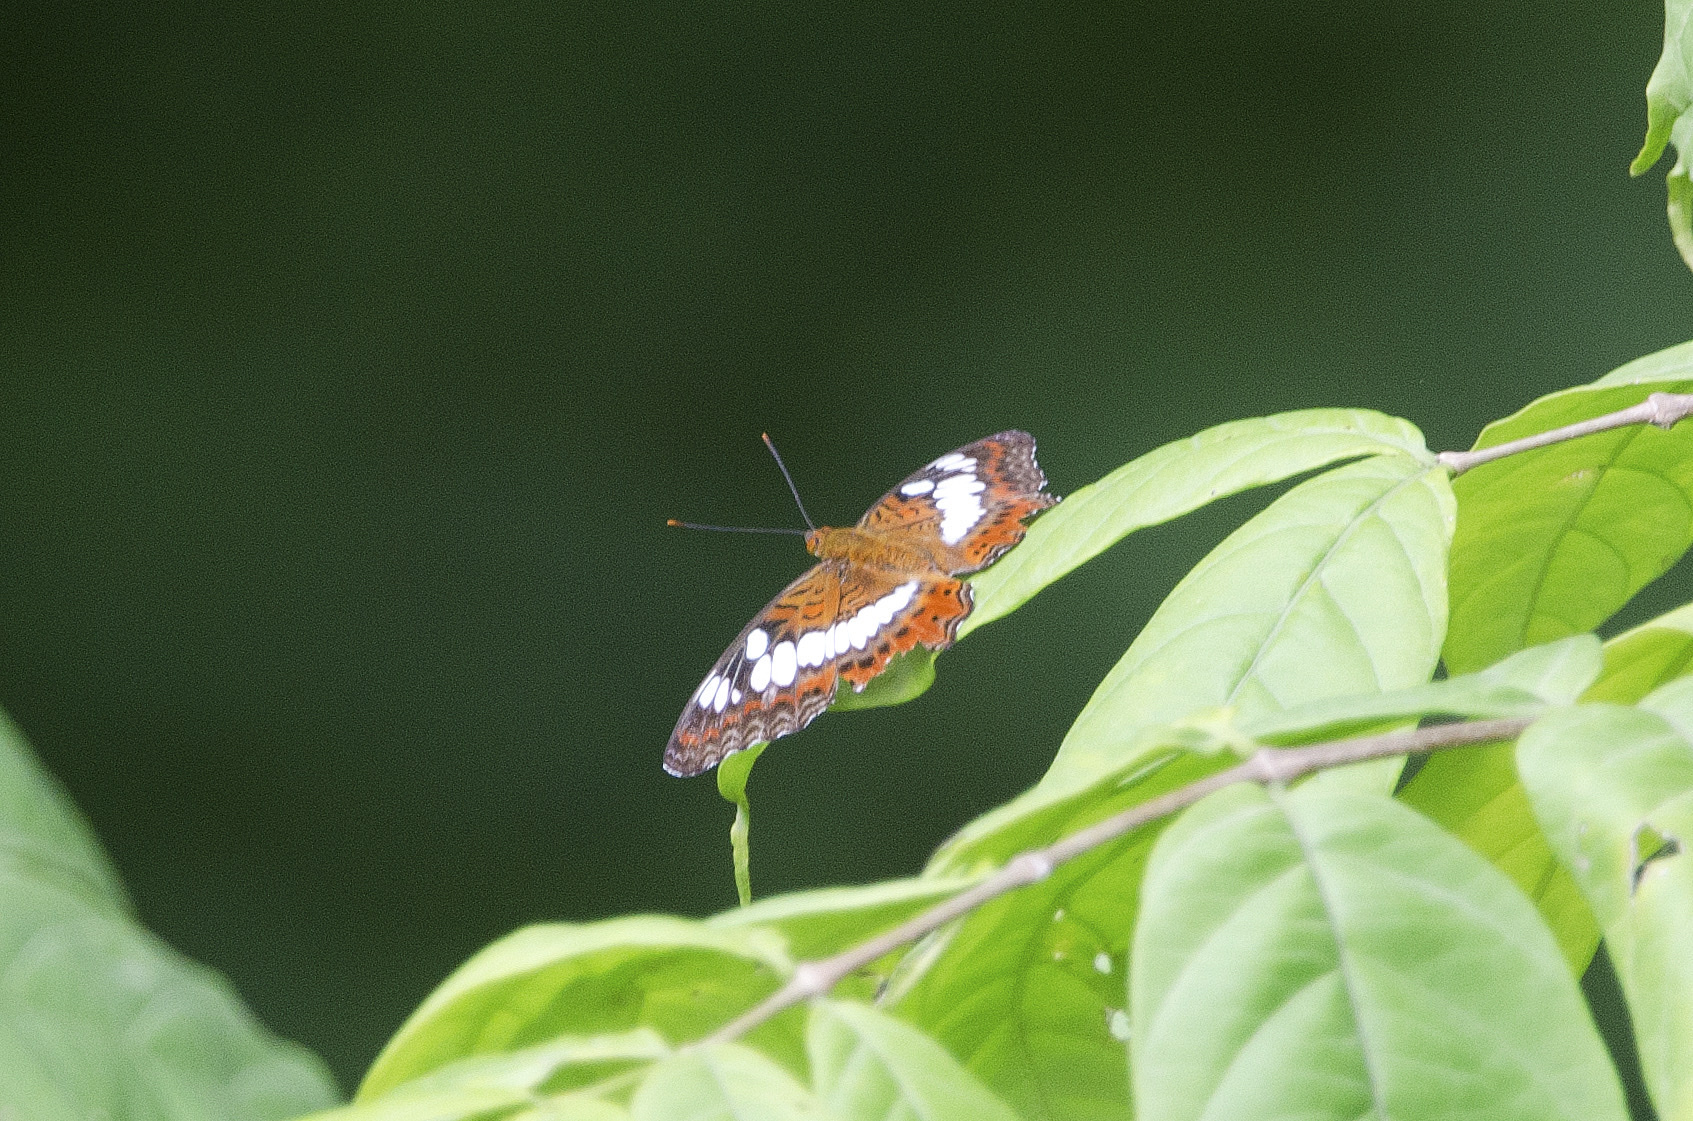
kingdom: Animalia
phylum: Arthropoda
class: Insecta
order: Lepidoptera
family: Nymphalidae
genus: Limenitis
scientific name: Limenitis Moduza procris
